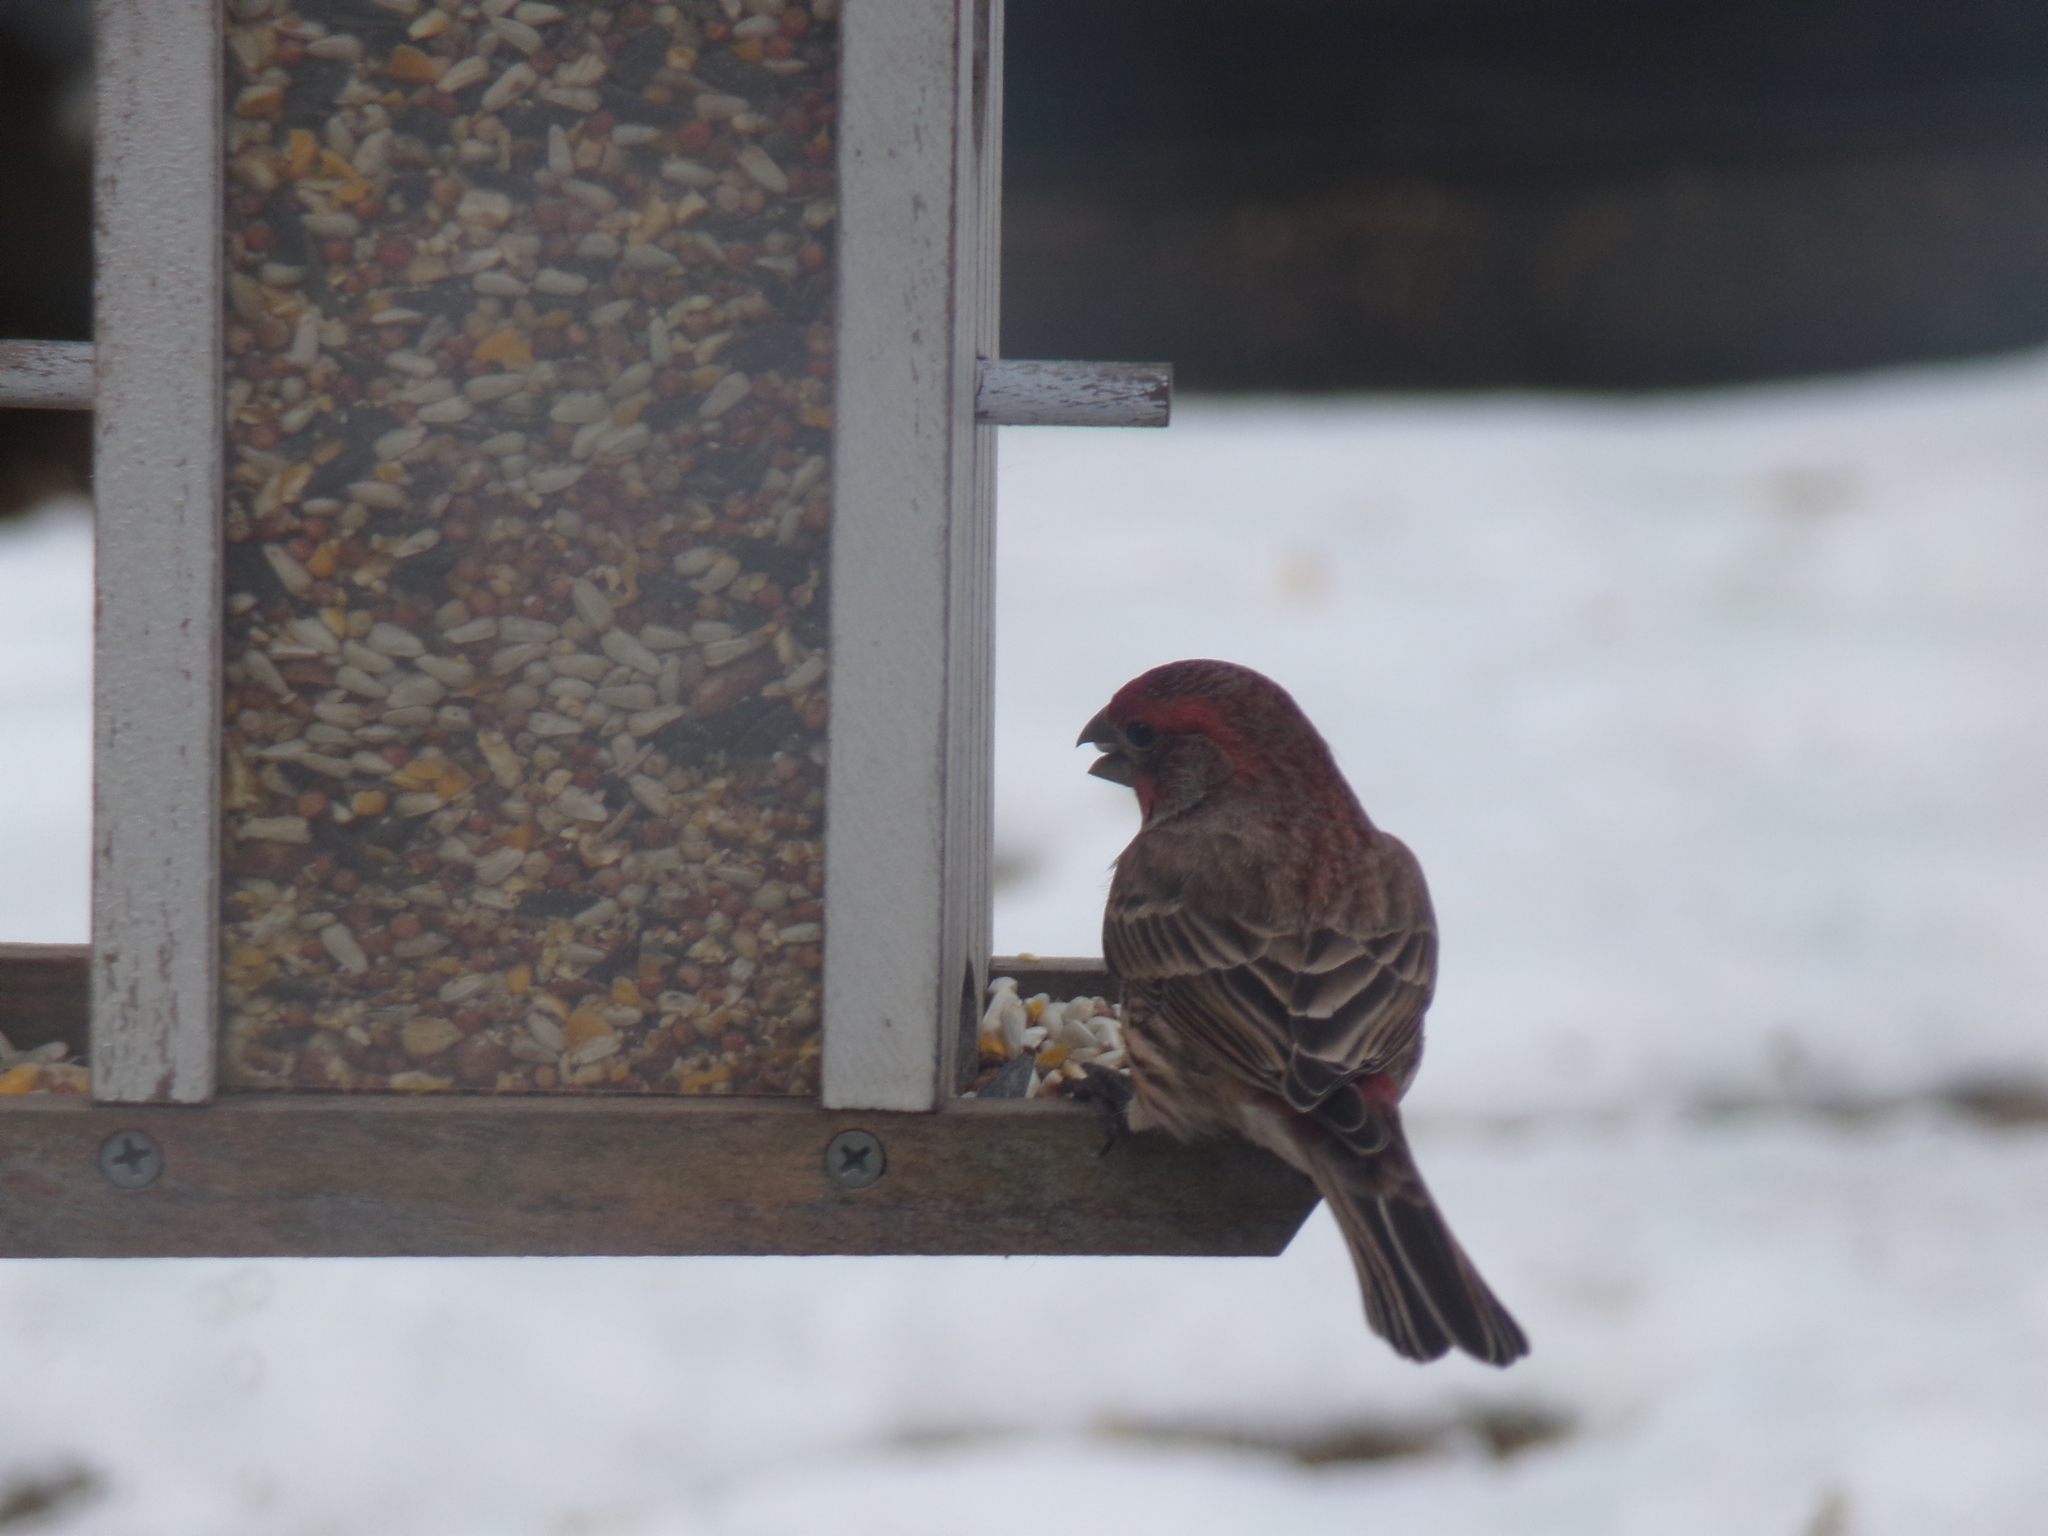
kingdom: Animalia
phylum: Chordata
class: Aves
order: Passeriformes
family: Fringillidae
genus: Haemorhous
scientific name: Haemorhous mexicanus
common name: House finch
